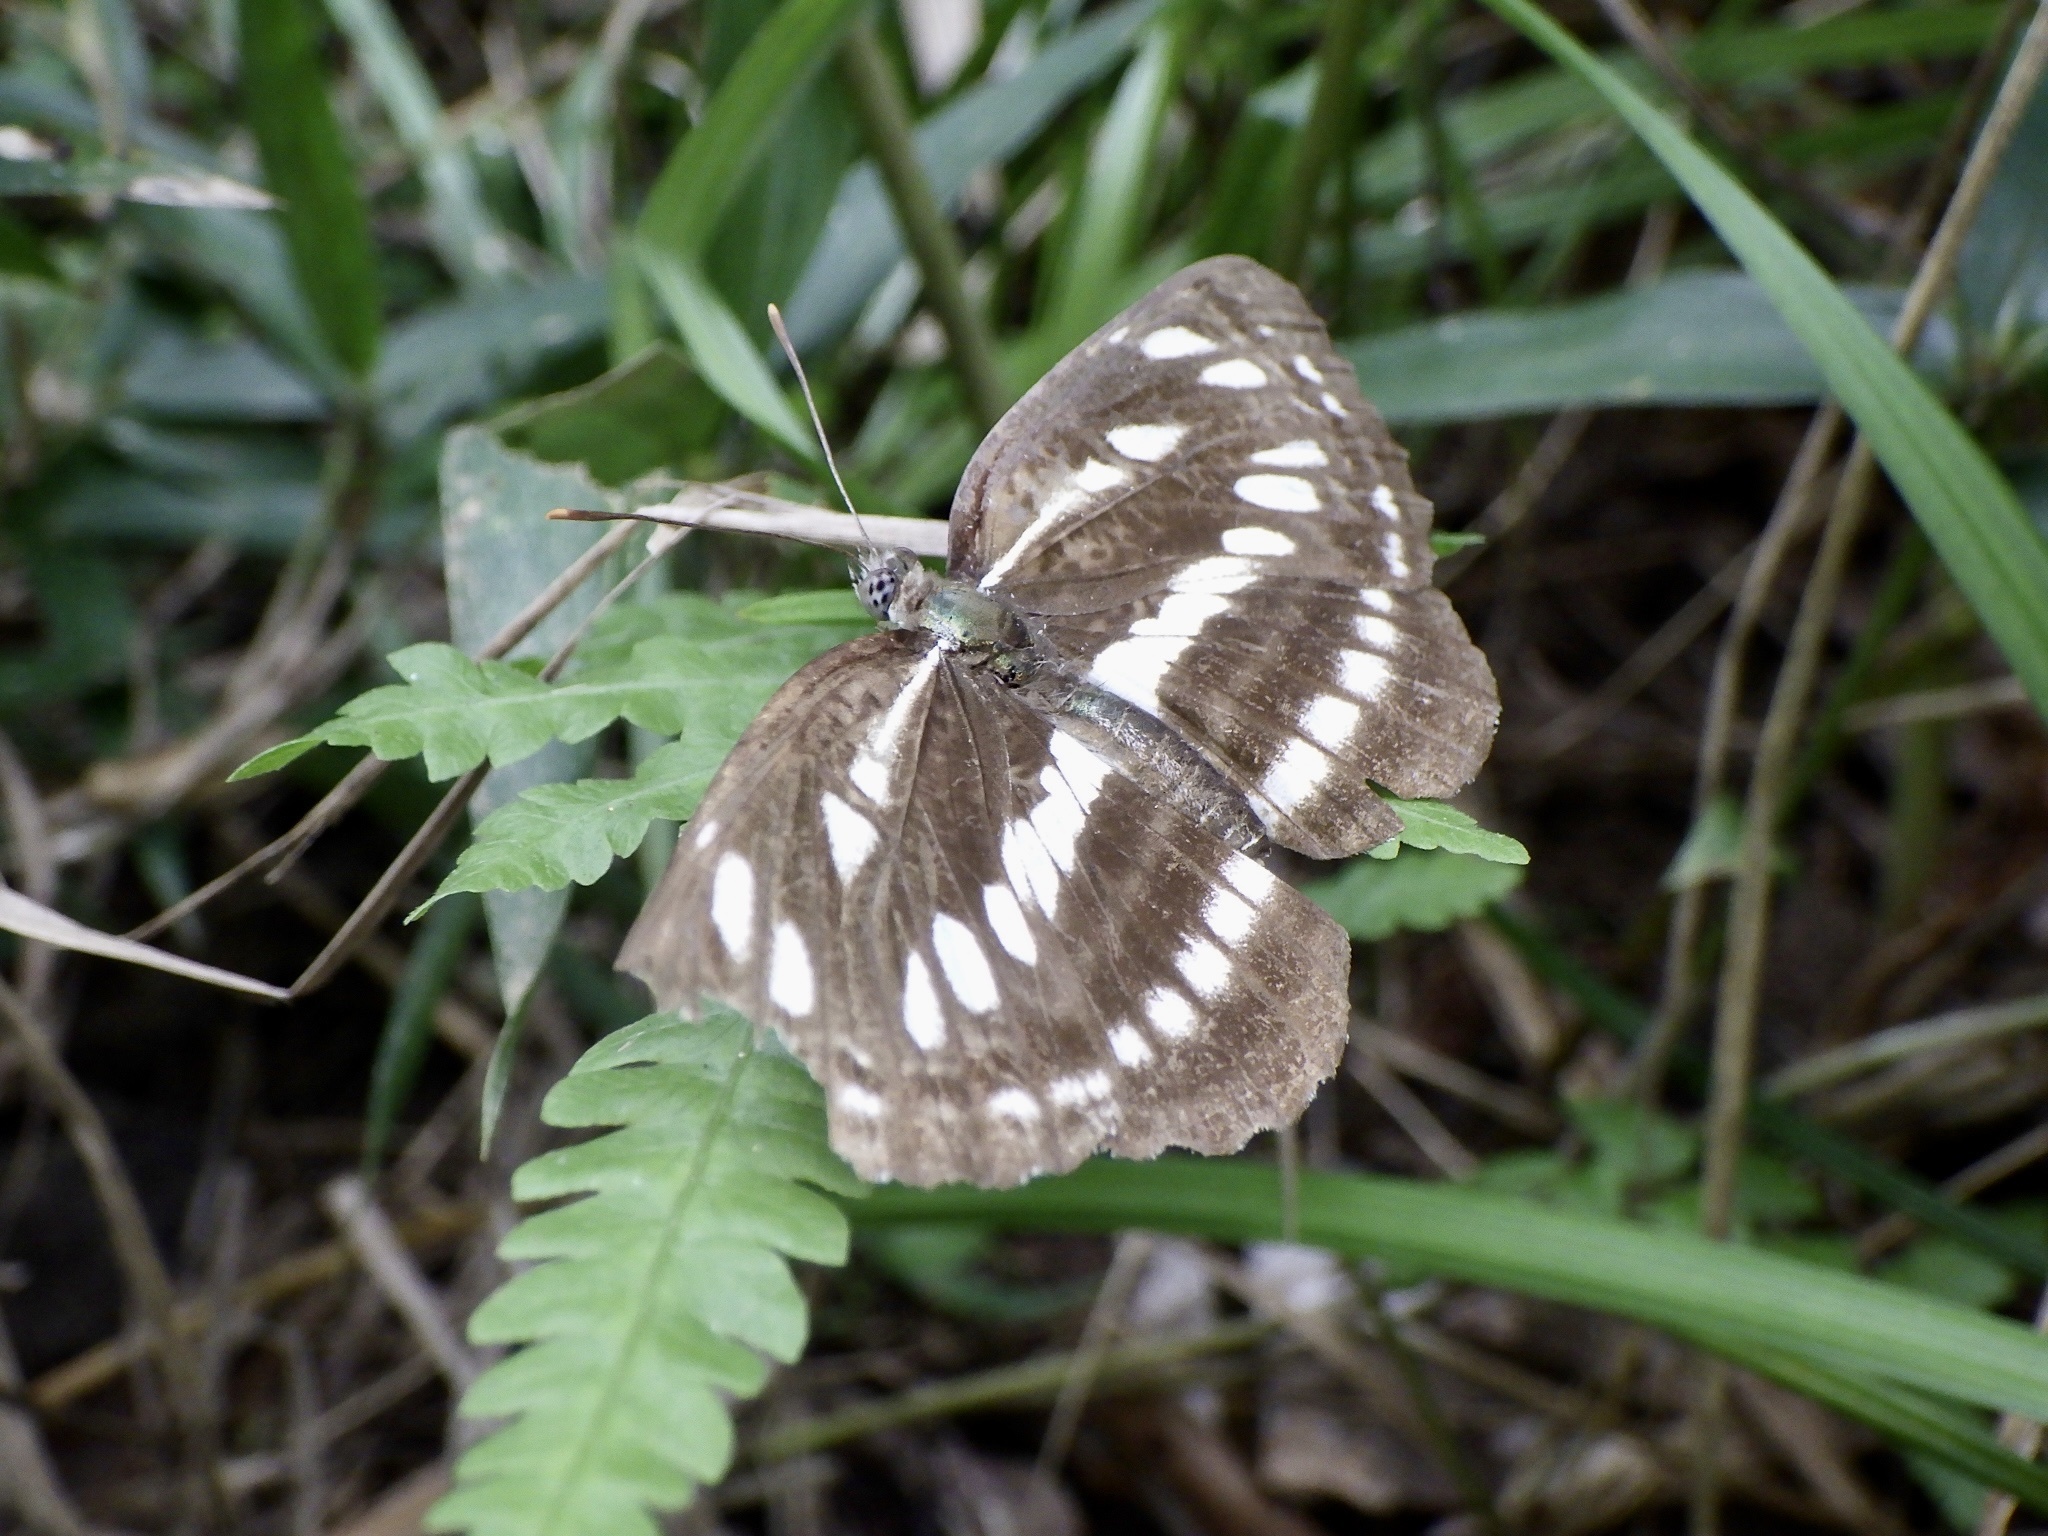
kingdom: Animalia
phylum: Arthropoda
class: Insecta
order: Lepidoptera
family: Nymphalidae
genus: Neptis
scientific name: Neptis sappho
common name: Common glider
